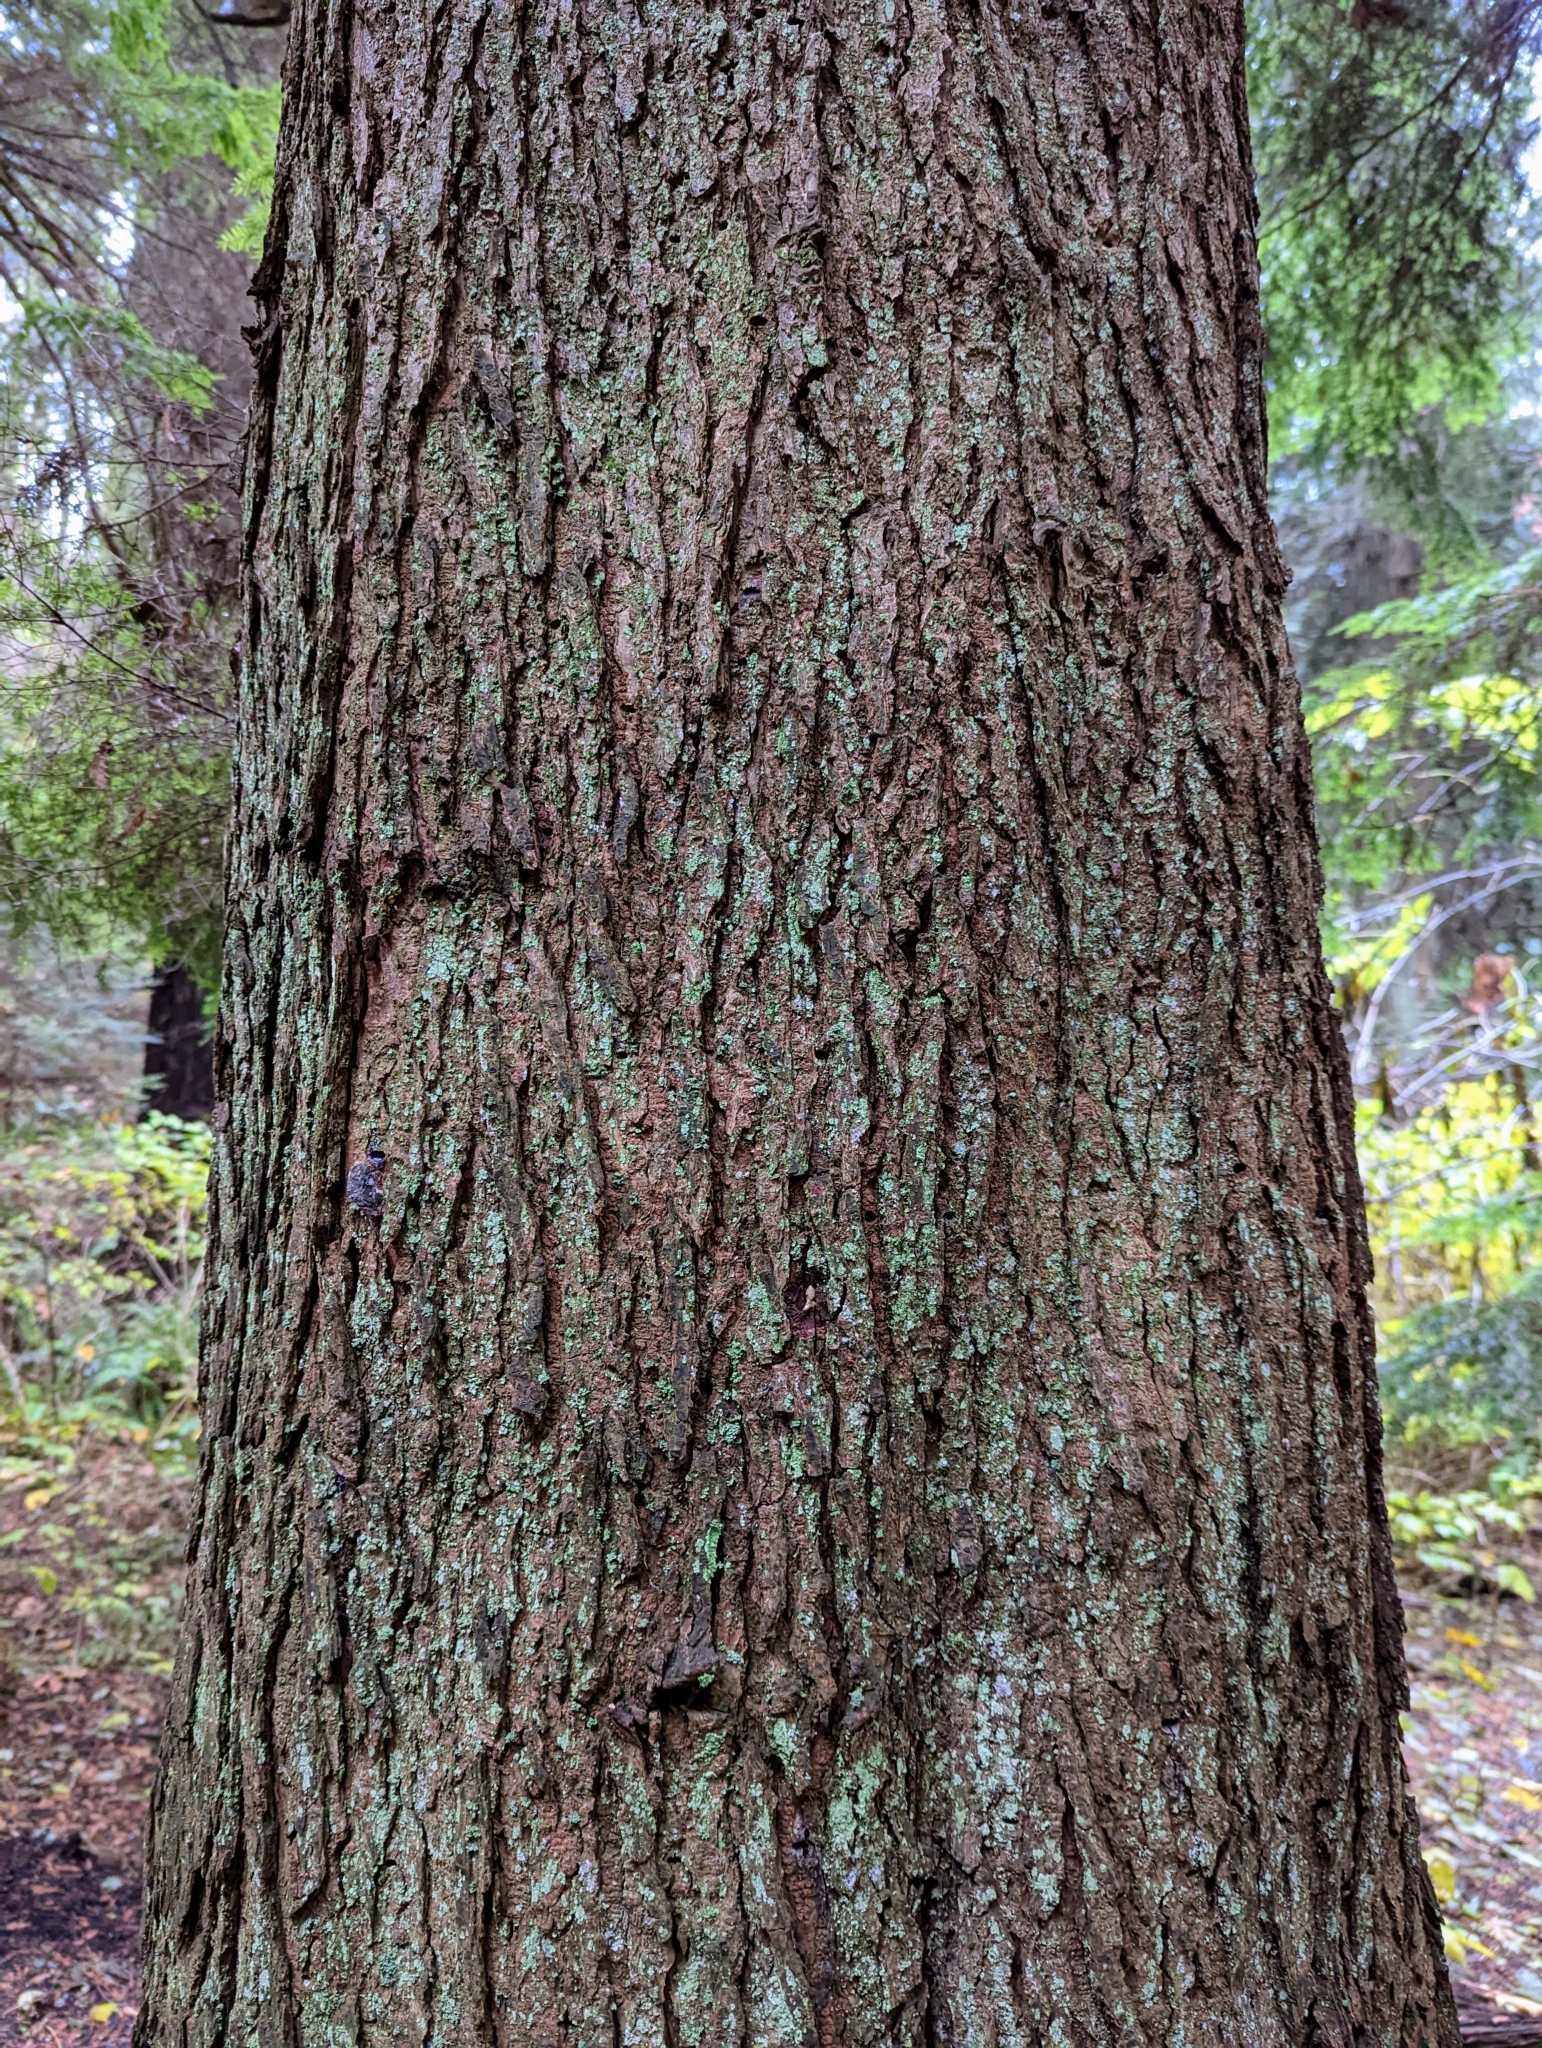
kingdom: Plantae
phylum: Tracheophyta
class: Pinopsida
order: Pinales
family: Pinaceae
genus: Tsuga
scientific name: Tsuga heterophylla
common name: Western hemlock
